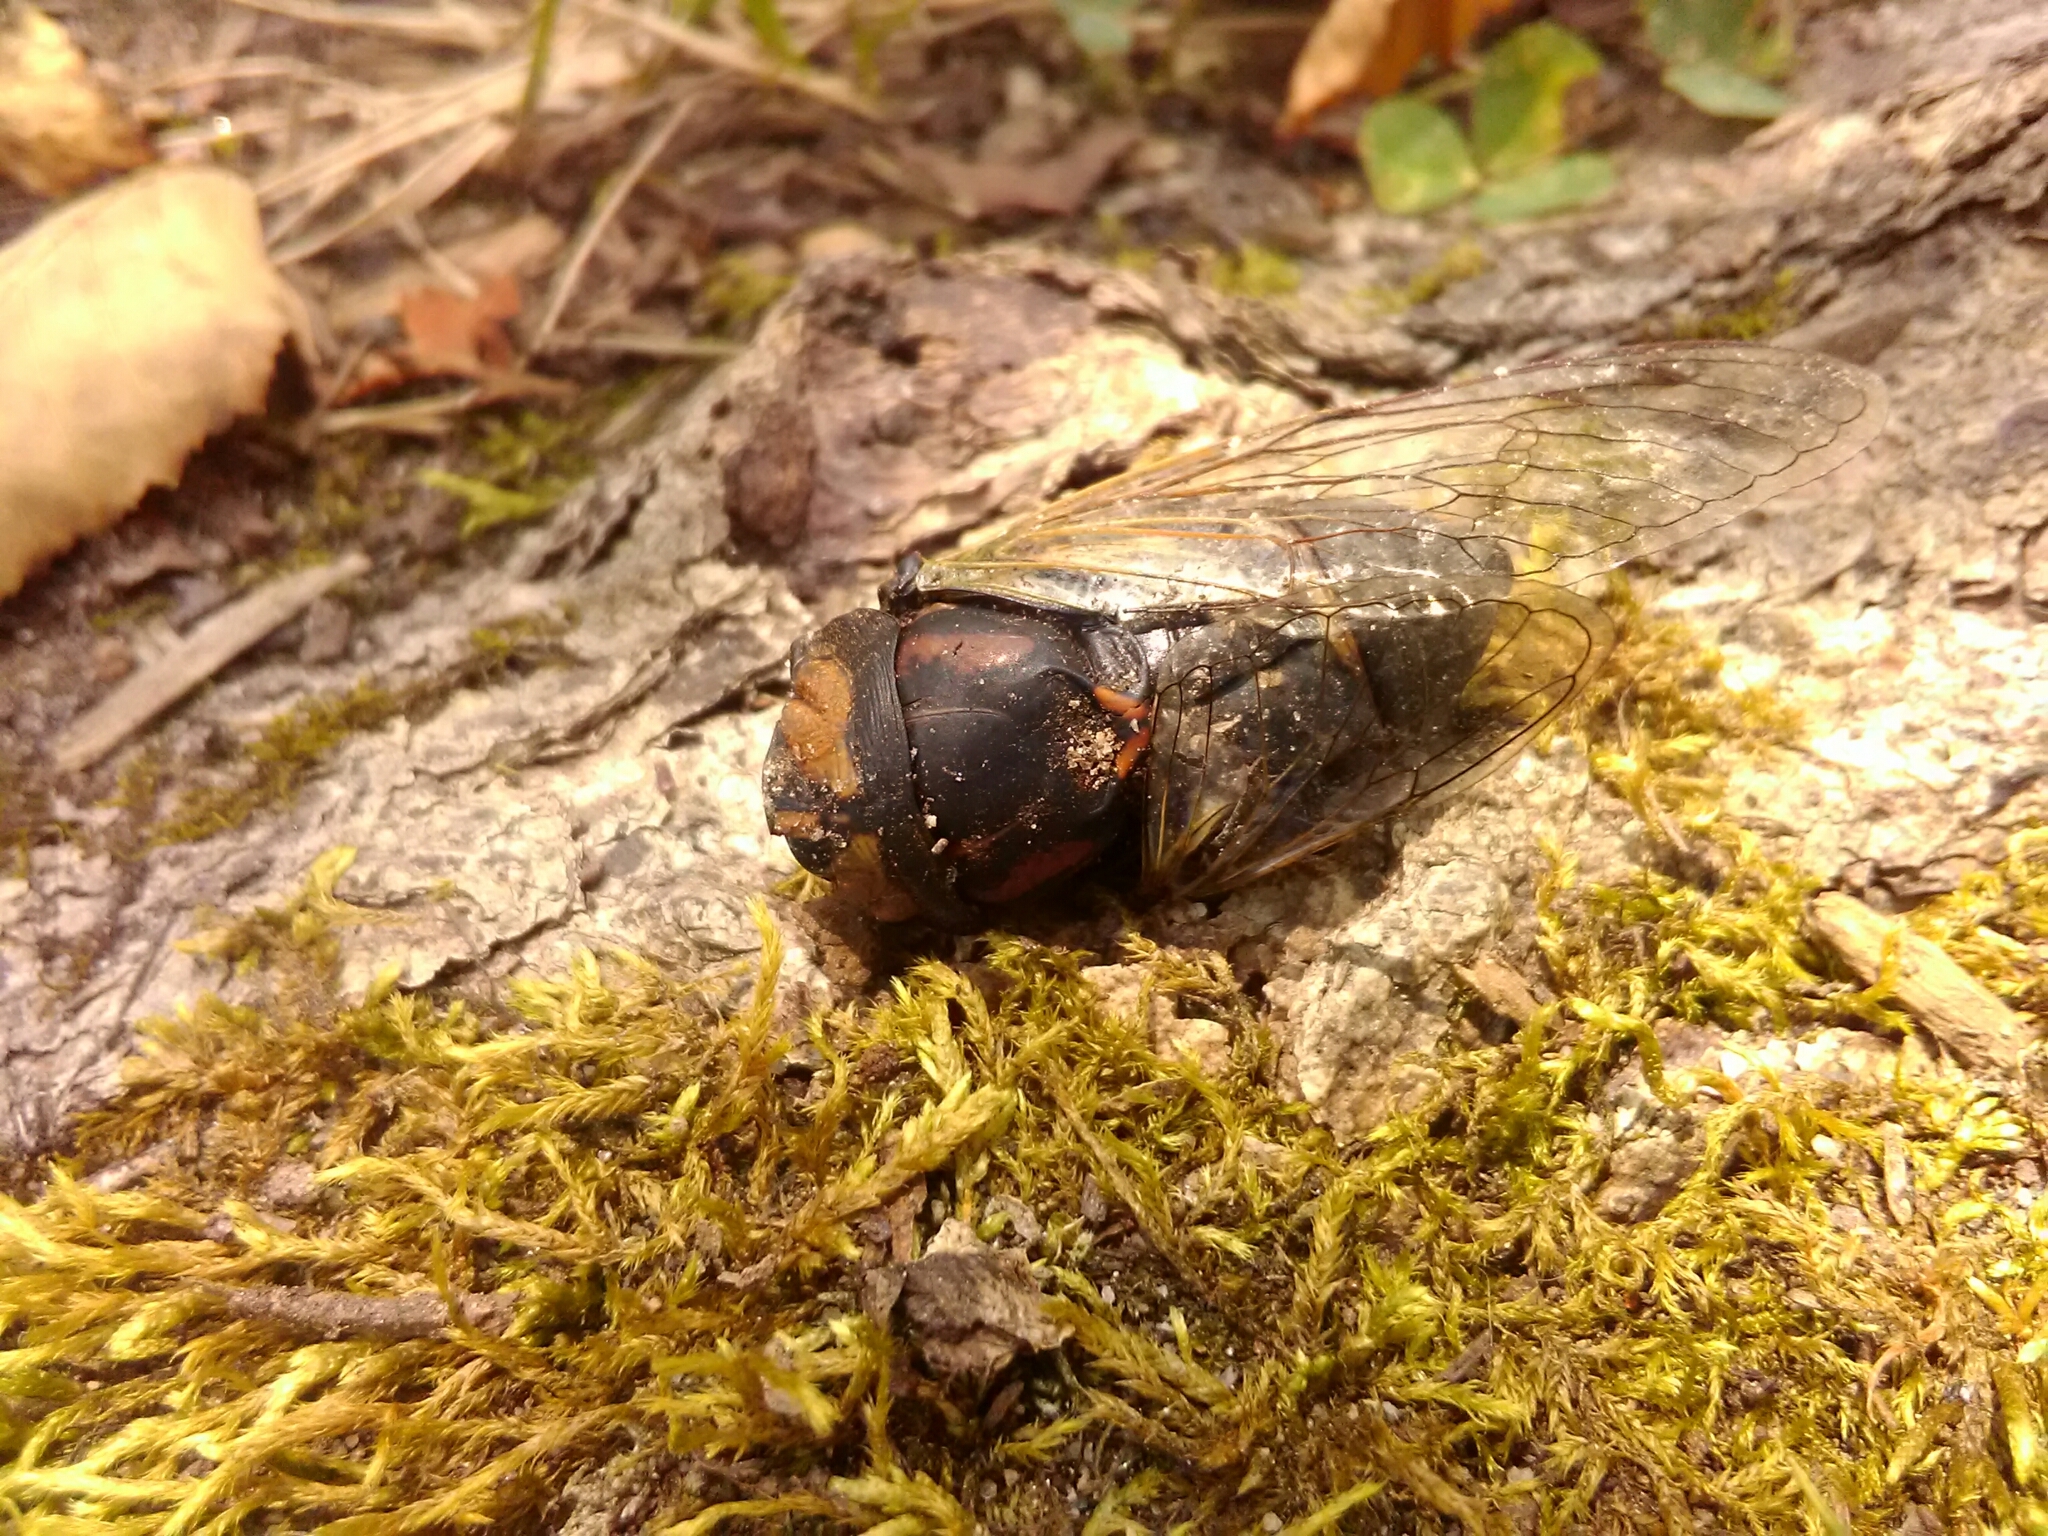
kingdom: Animalia
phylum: Arthropoda
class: Insecta
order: Hemiptera
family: Cicadidae
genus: Neotibicen
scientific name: Neotibicen tibicen
